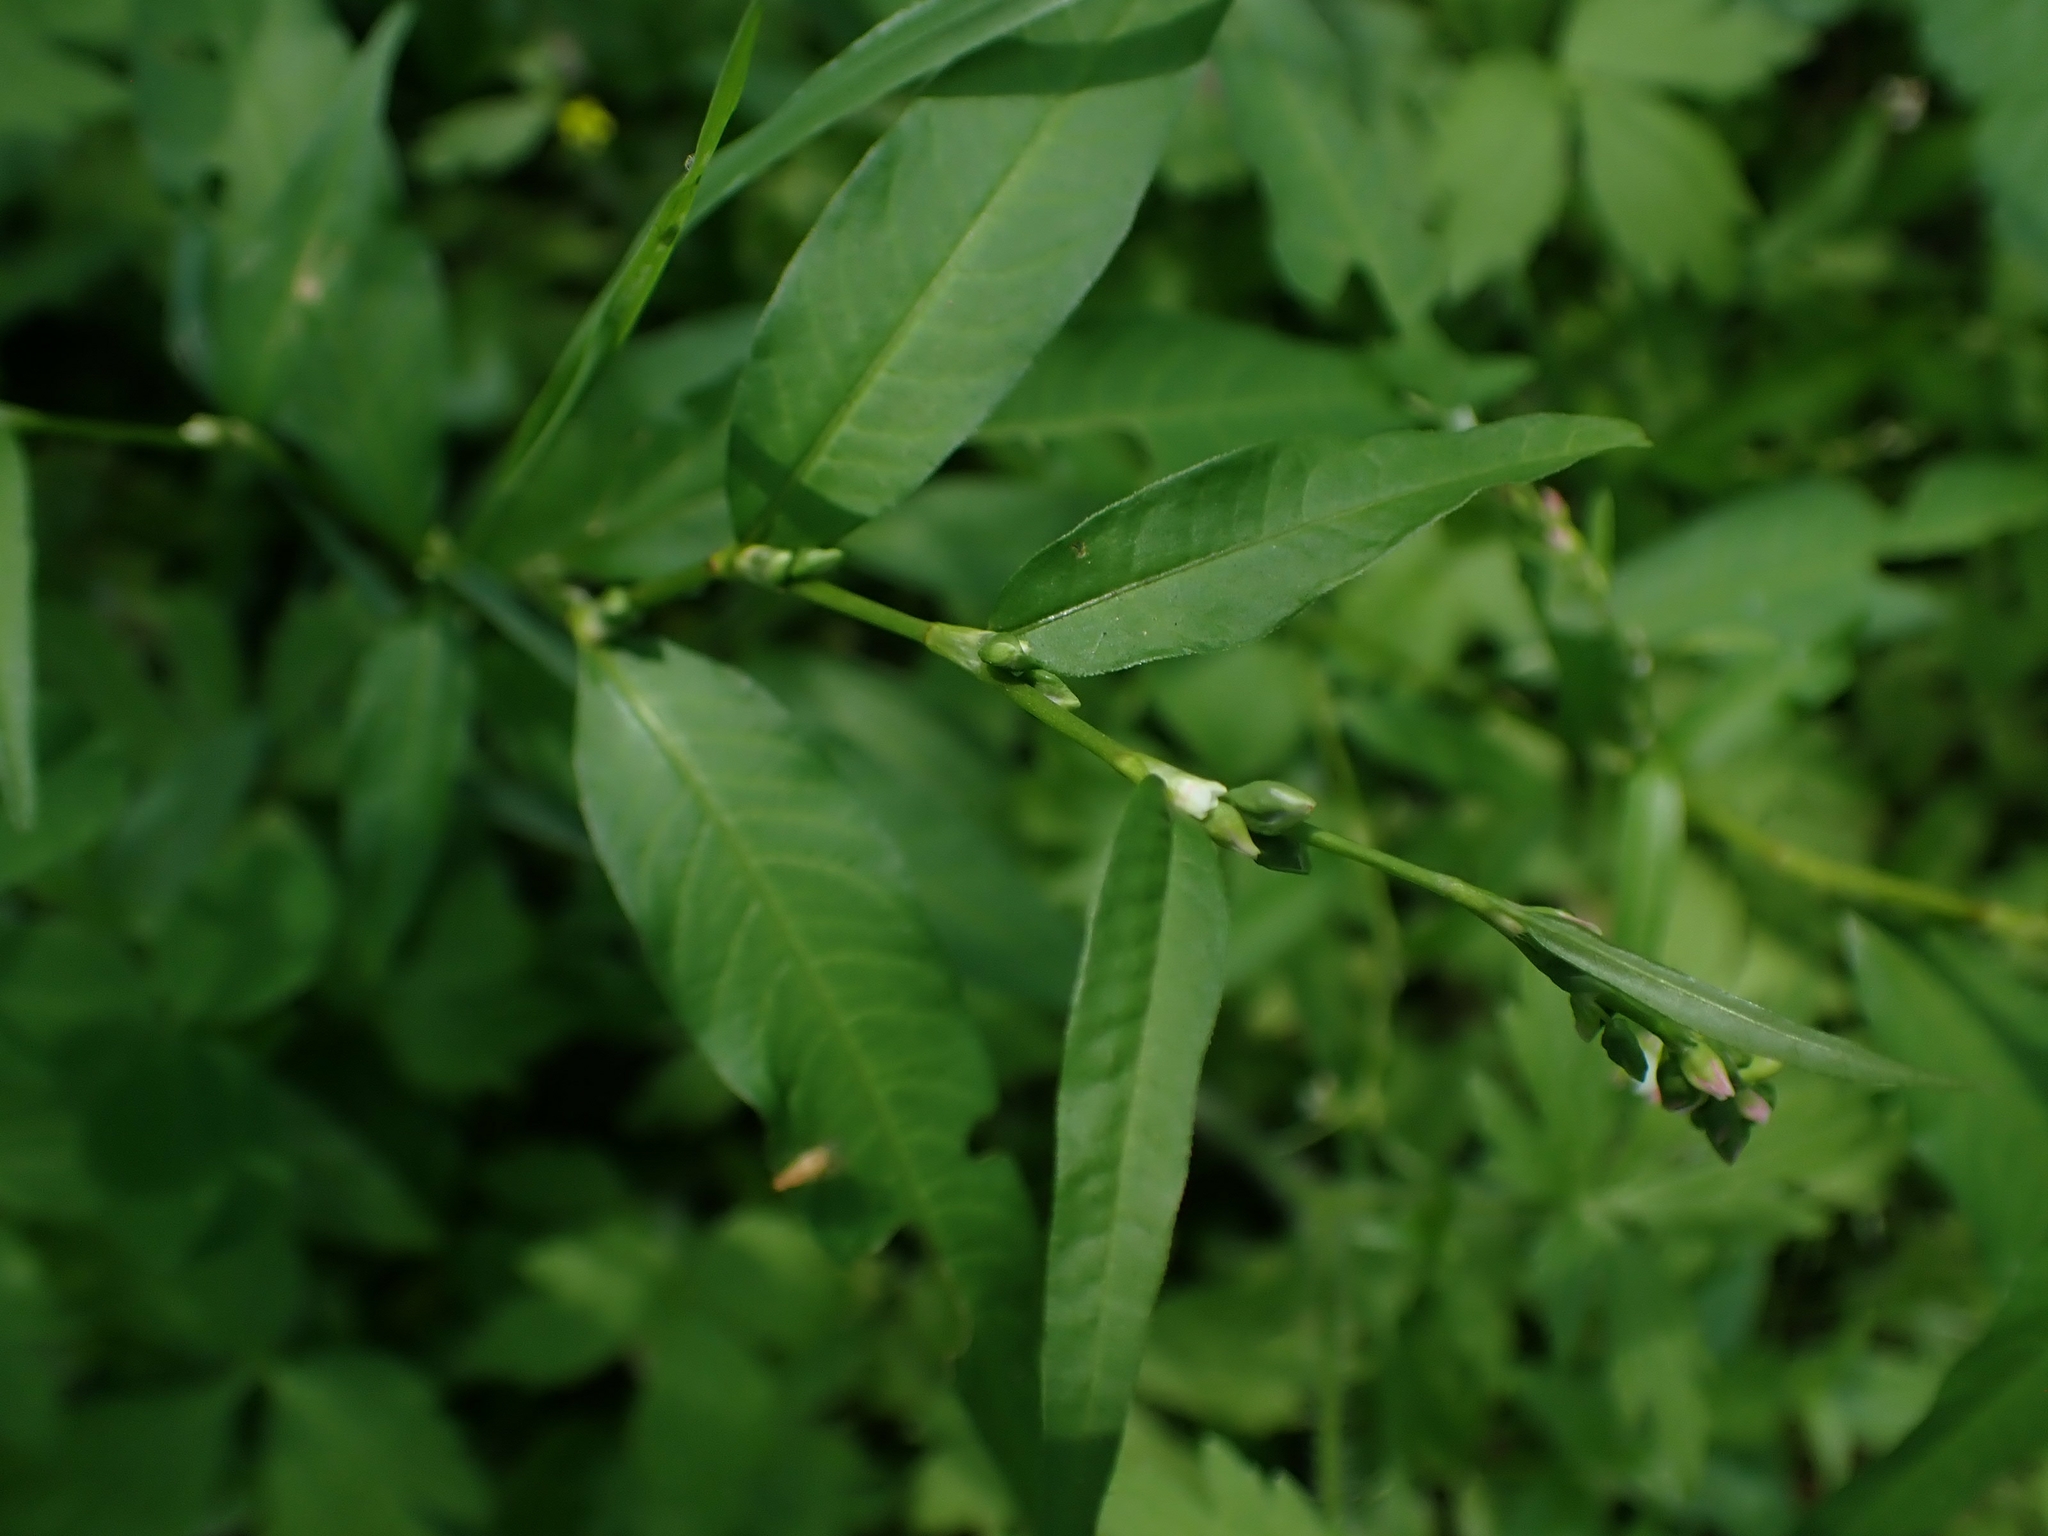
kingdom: Plantae
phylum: Tracheophyta
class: Magnoliopsida
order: Caryophyllales
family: Polygonaceae
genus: Persicaria
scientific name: Persicaria lapathifolia
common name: Curlytop knotweed
